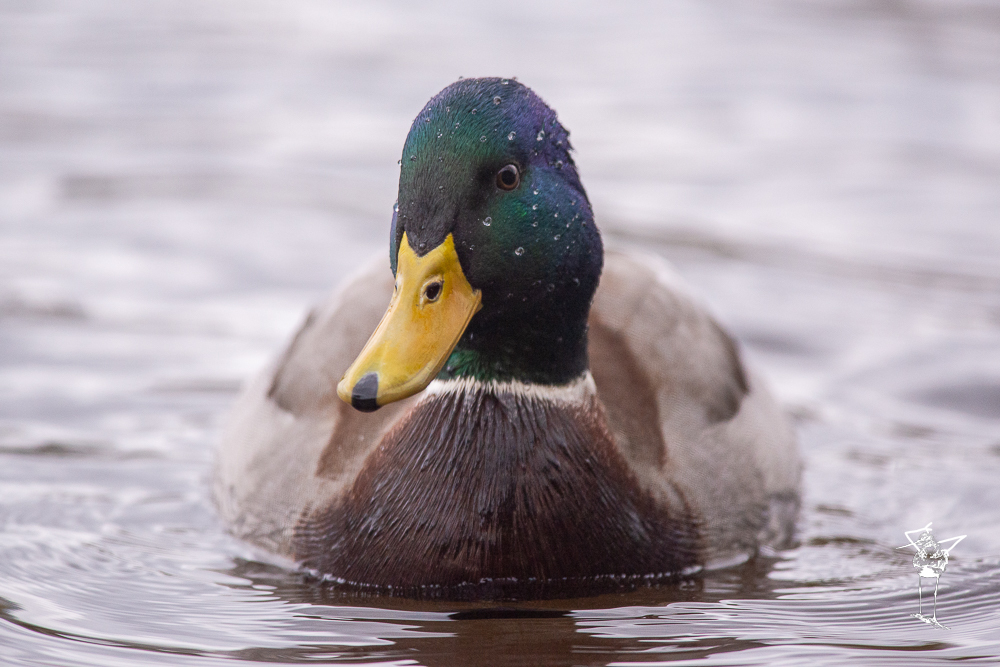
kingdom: Animalia
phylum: Chordata
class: Aves
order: Anseriformes
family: Anatidae
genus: Anas
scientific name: Anas platyrhynchos
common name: Mallard
